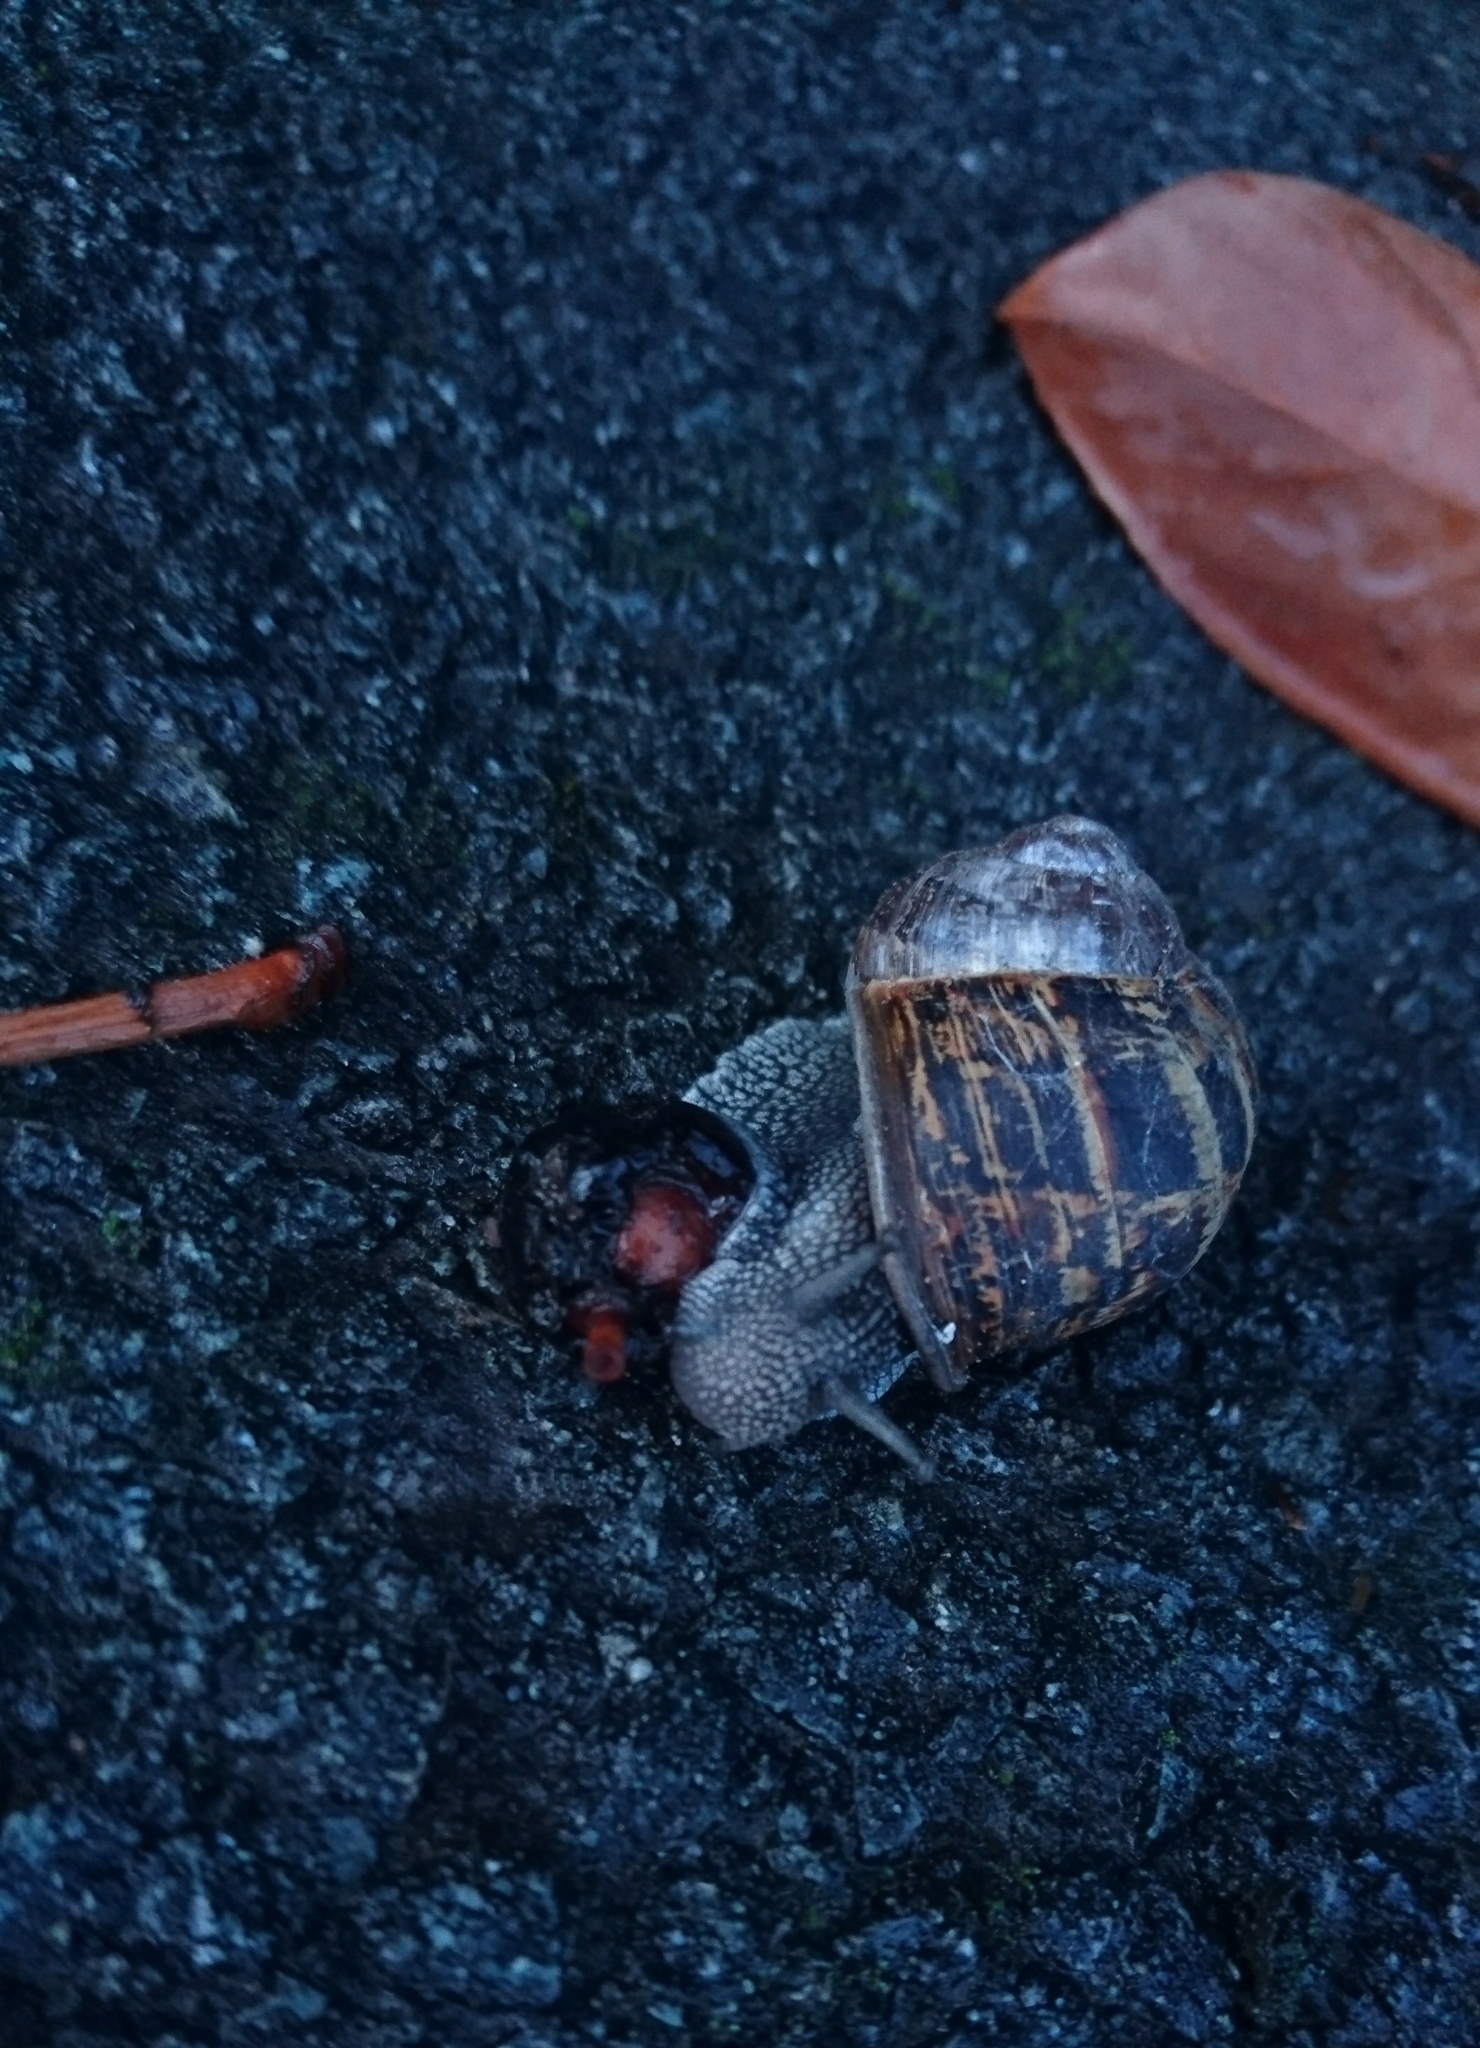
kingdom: Animalia
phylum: Mollusca
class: Gastropoda
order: Stylommatophora
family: Helicidae
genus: Cornu
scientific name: Cornu aspersum
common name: Brown garden snail
